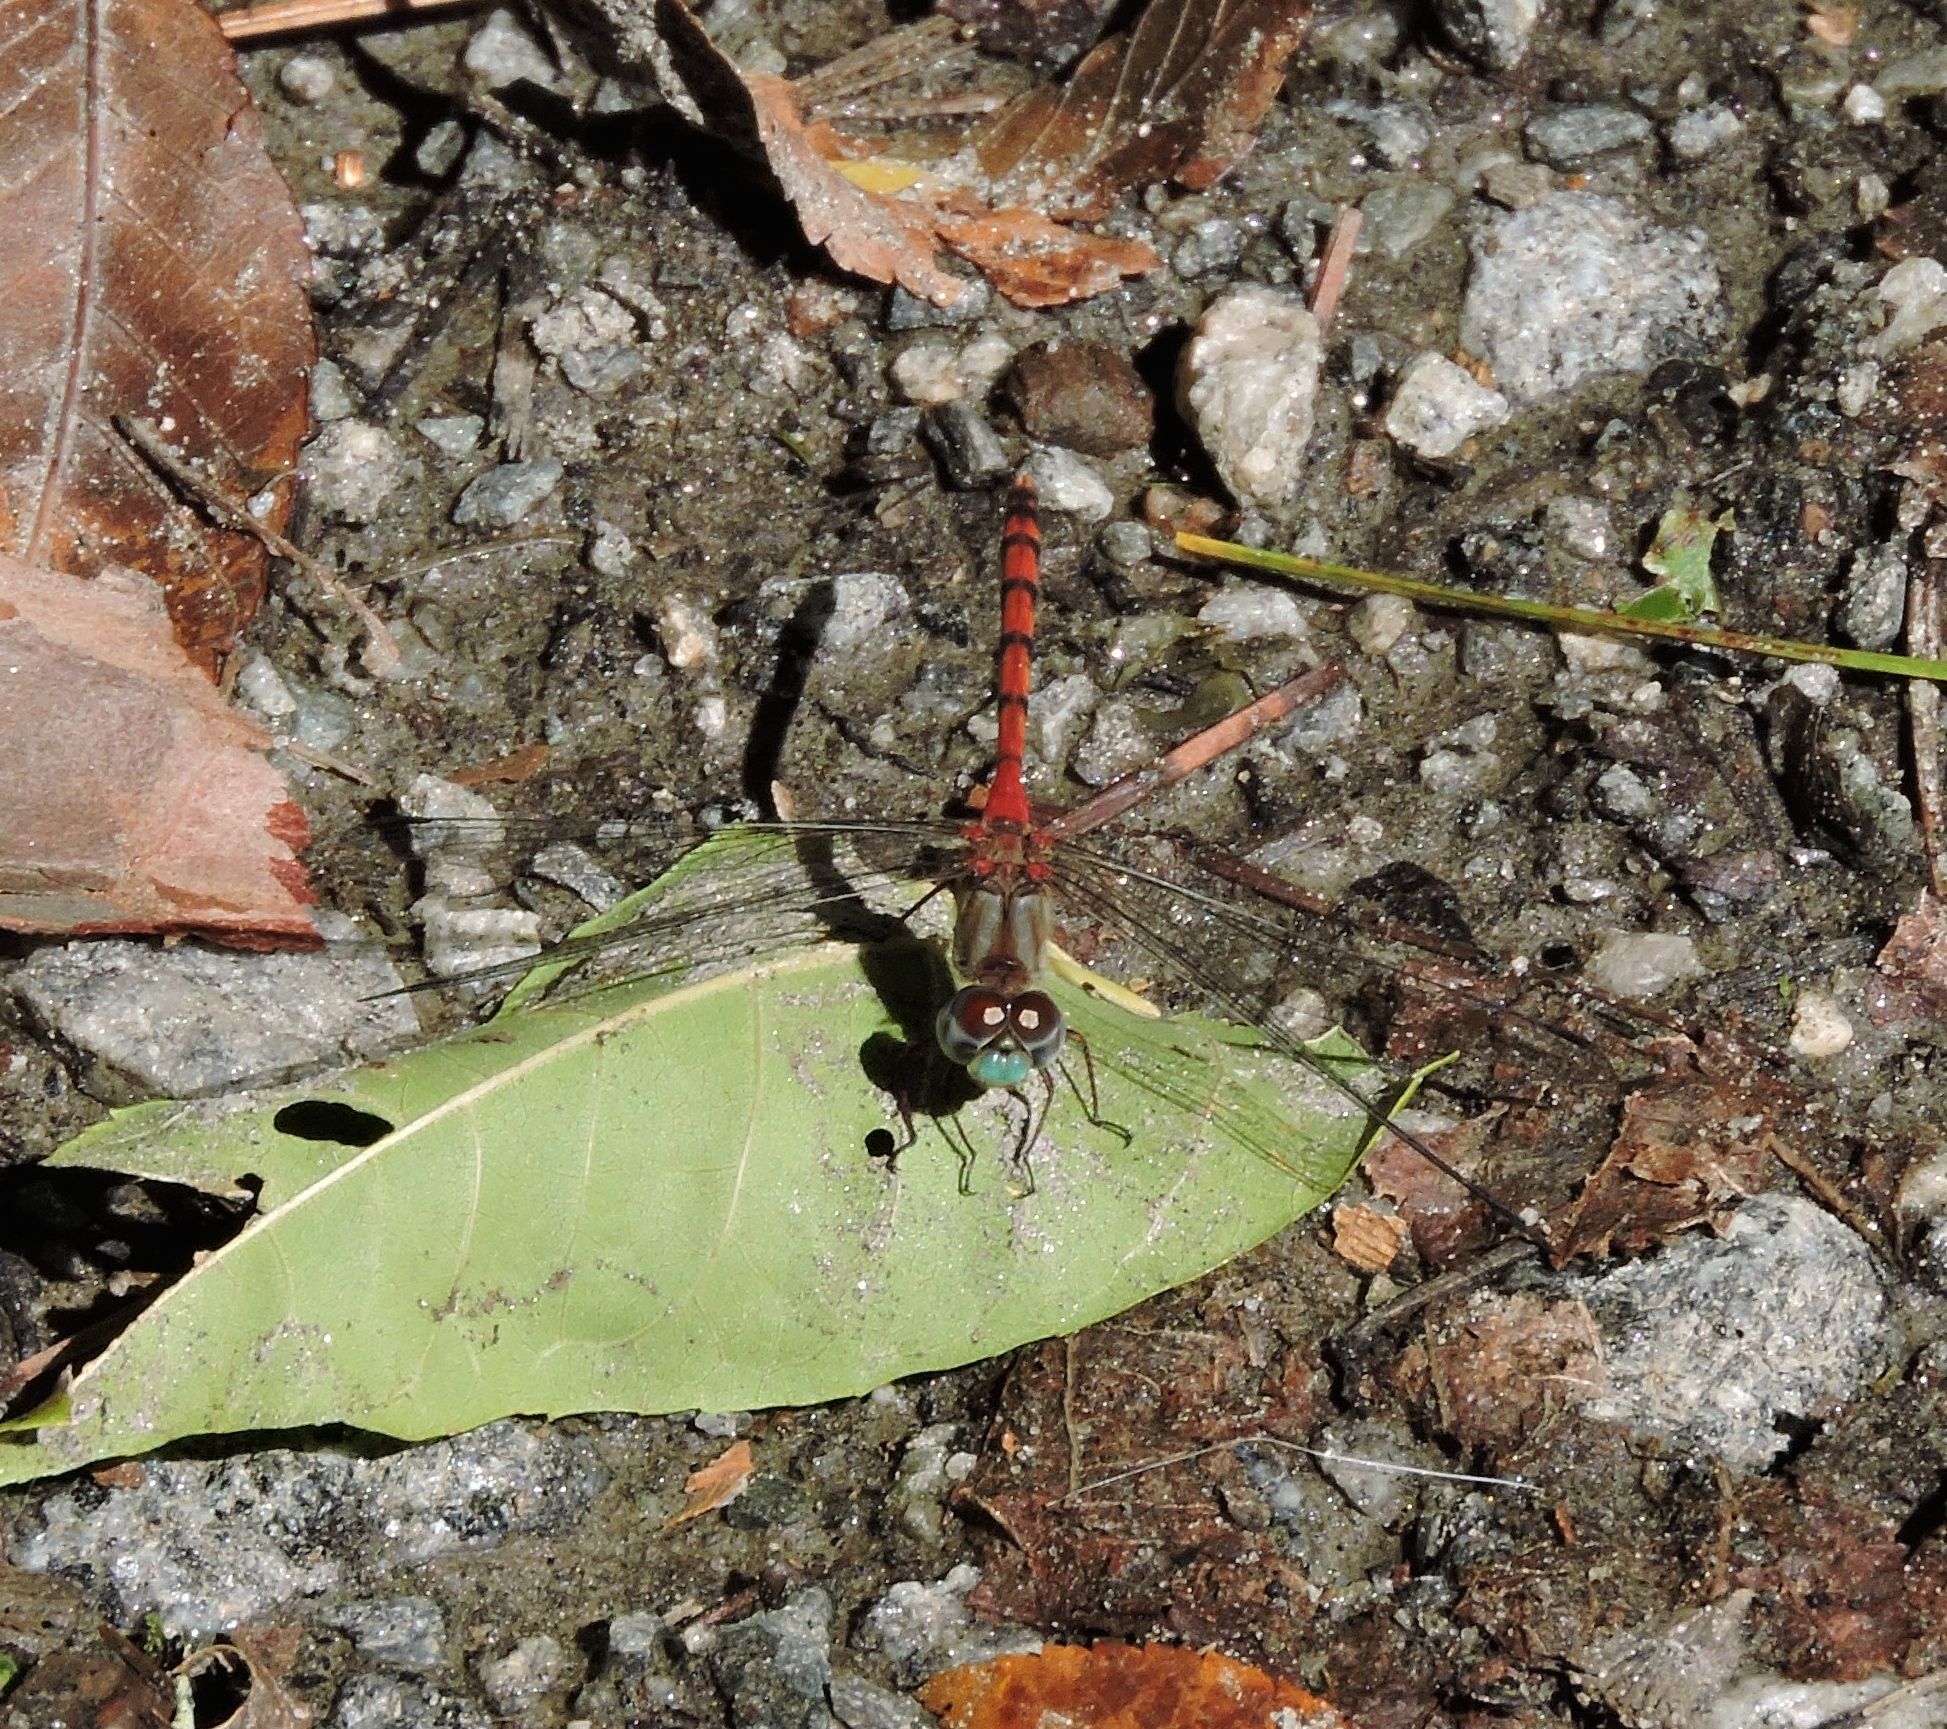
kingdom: Animalia
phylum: Arthropoda
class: Insecta
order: Odonata
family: Libellulidae
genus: Sympetrum
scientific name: Sympetrum ambiguum
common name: Blue-faced meadowhawk
